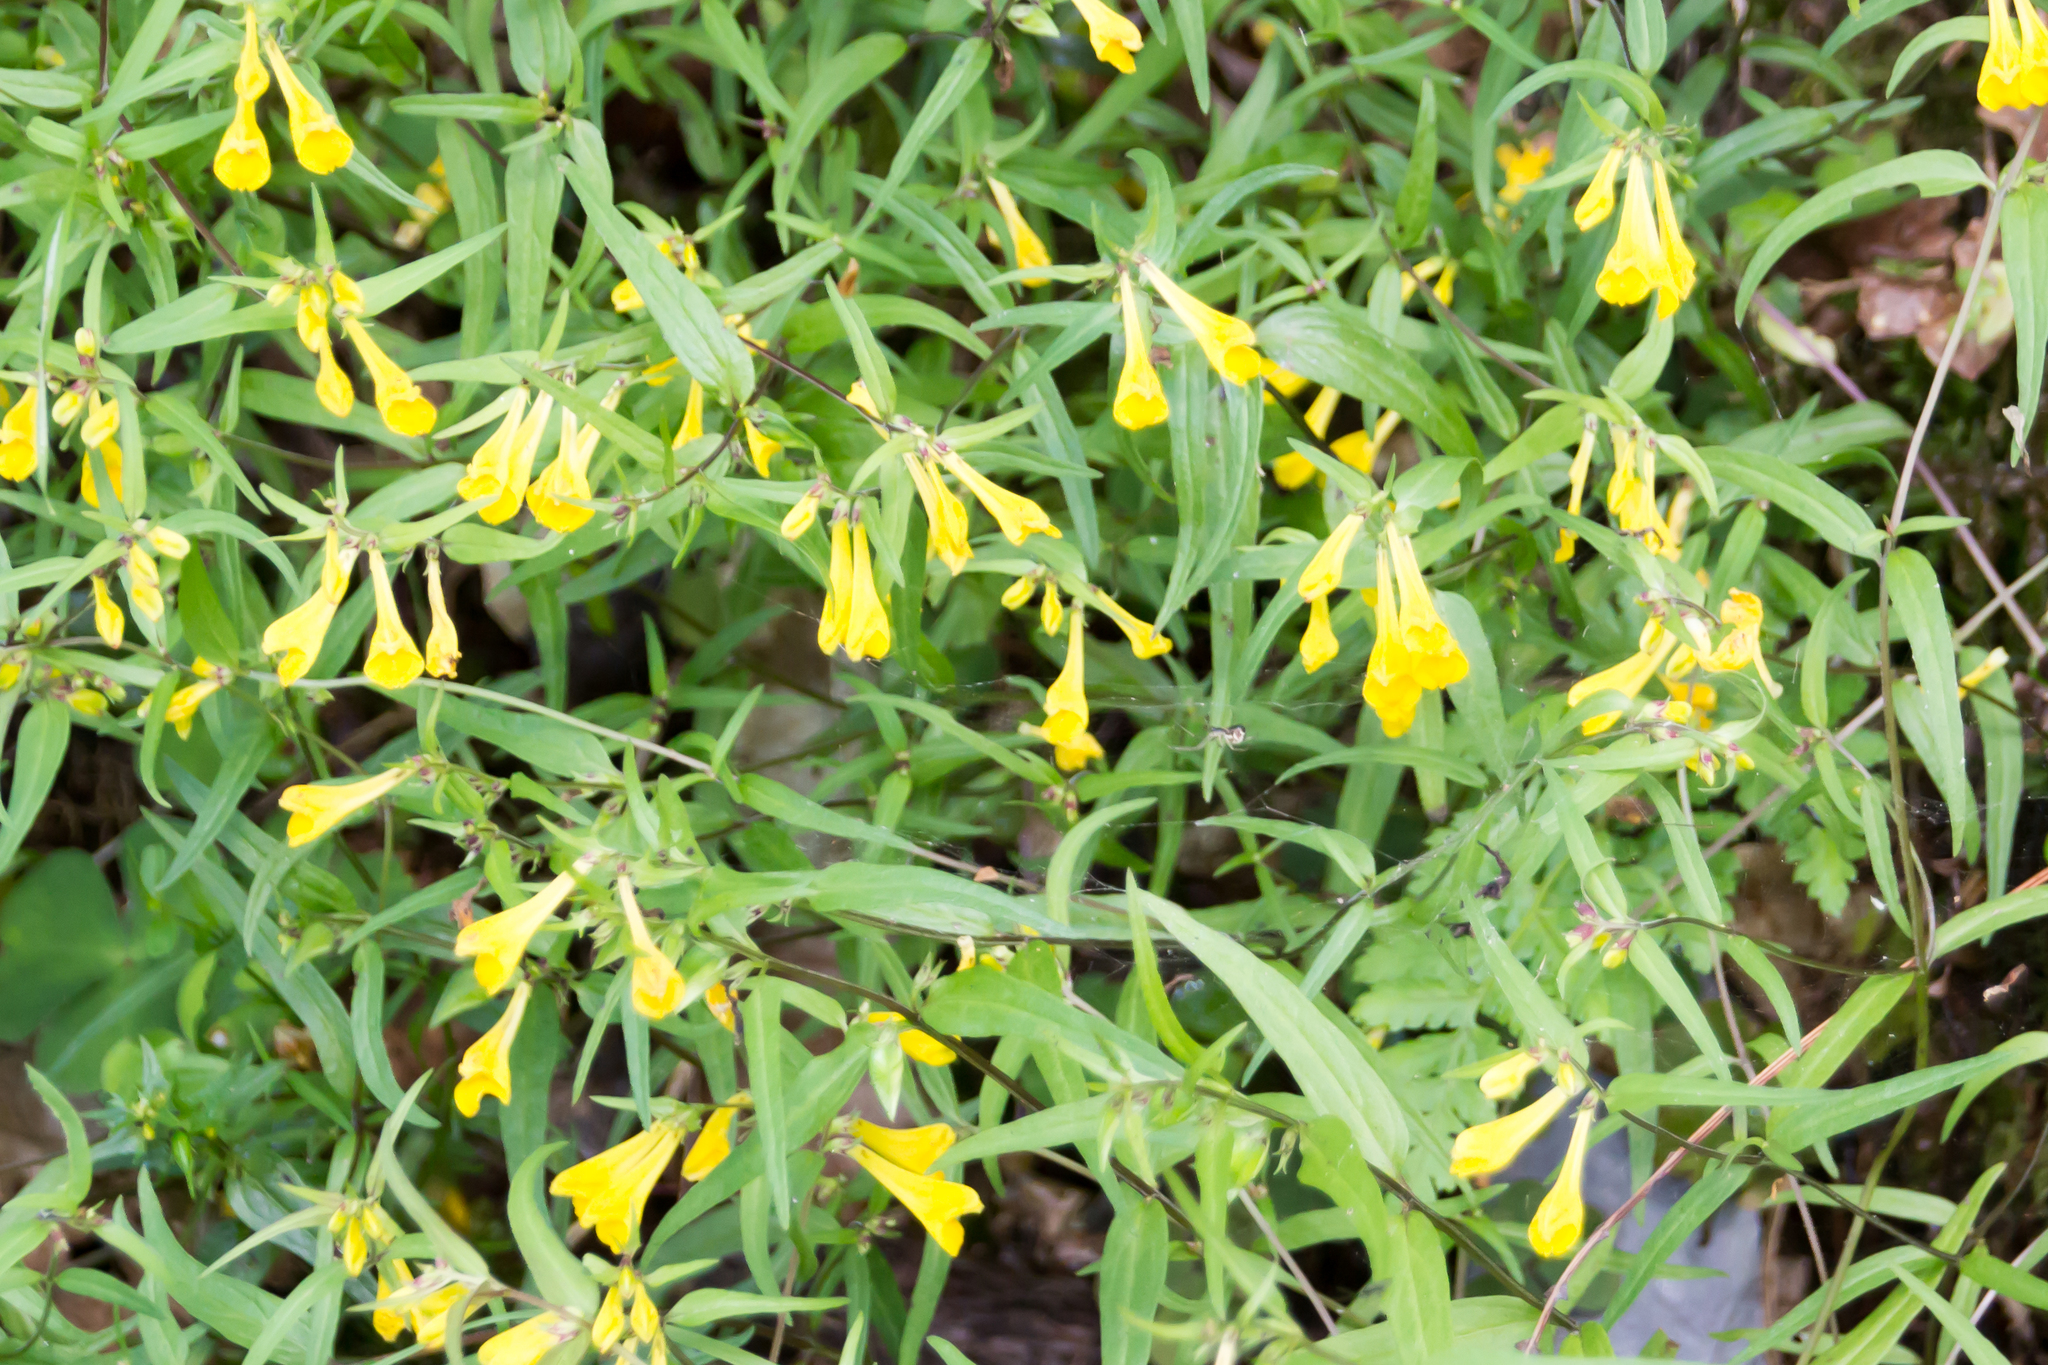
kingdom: Plantae
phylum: Tracheophyta
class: Magnoliopsida
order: Lamiales
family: Orobanchaceae
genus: Melampyrum
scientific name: Melampyrum pratense
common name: Common cow-wheat
